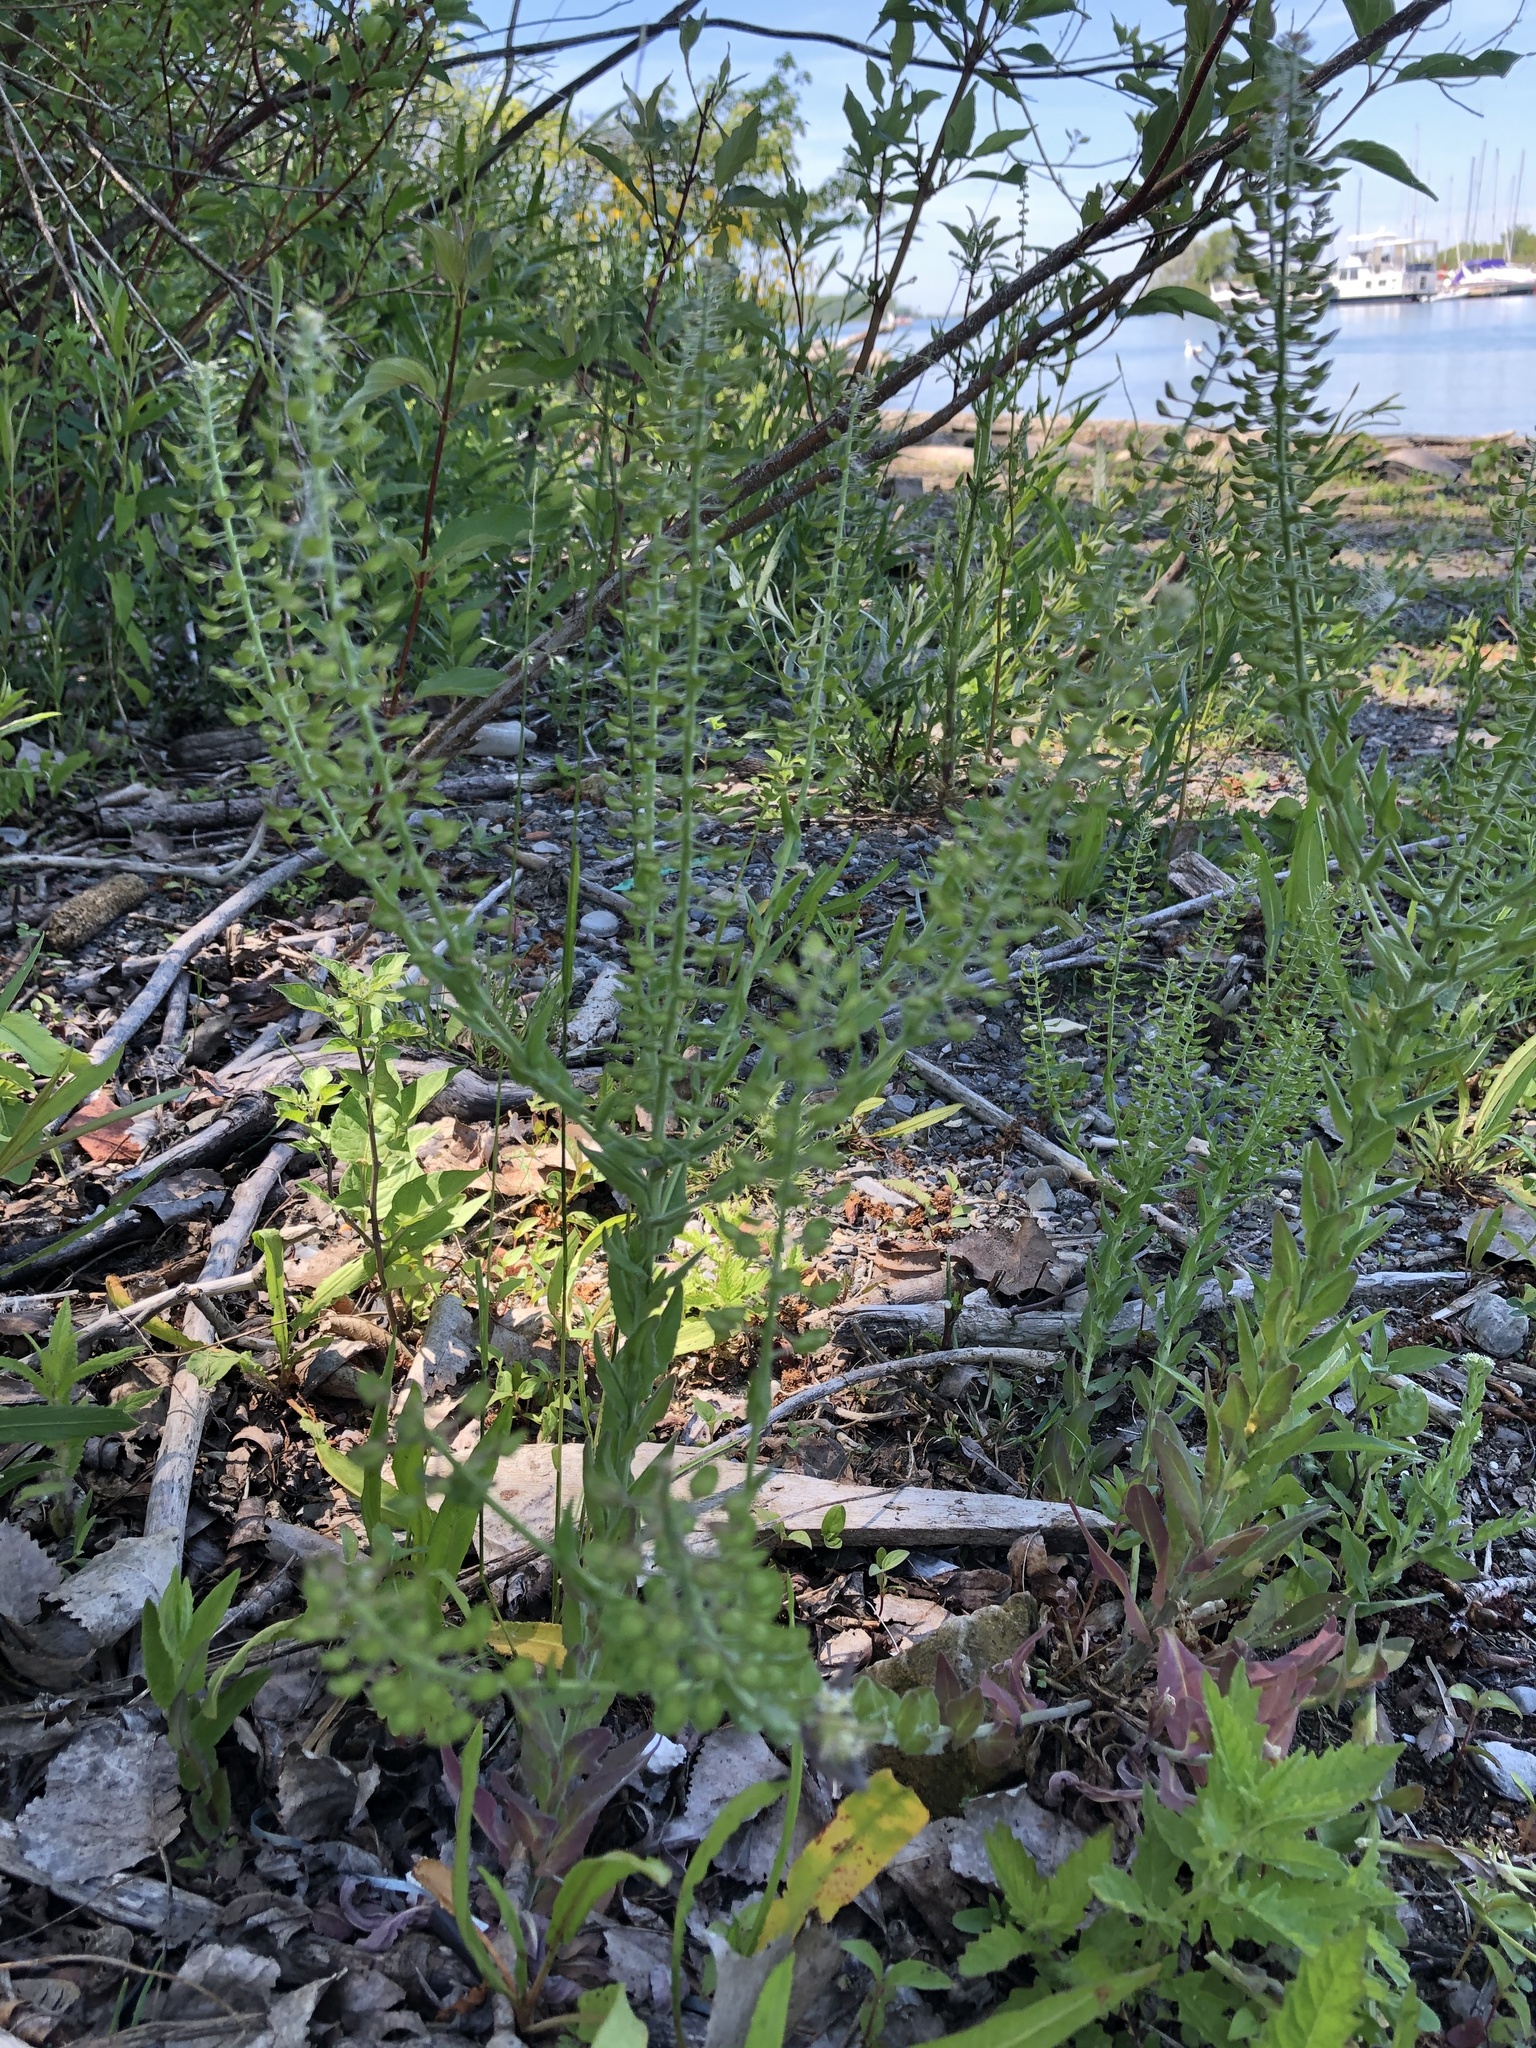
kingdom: Plantae
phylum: Tracheophyta
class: Magnoliopsida
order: Brassicales
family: Brassicaceae
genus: Lepidium
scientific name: Lepidium campestre
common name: Field pepperwort
